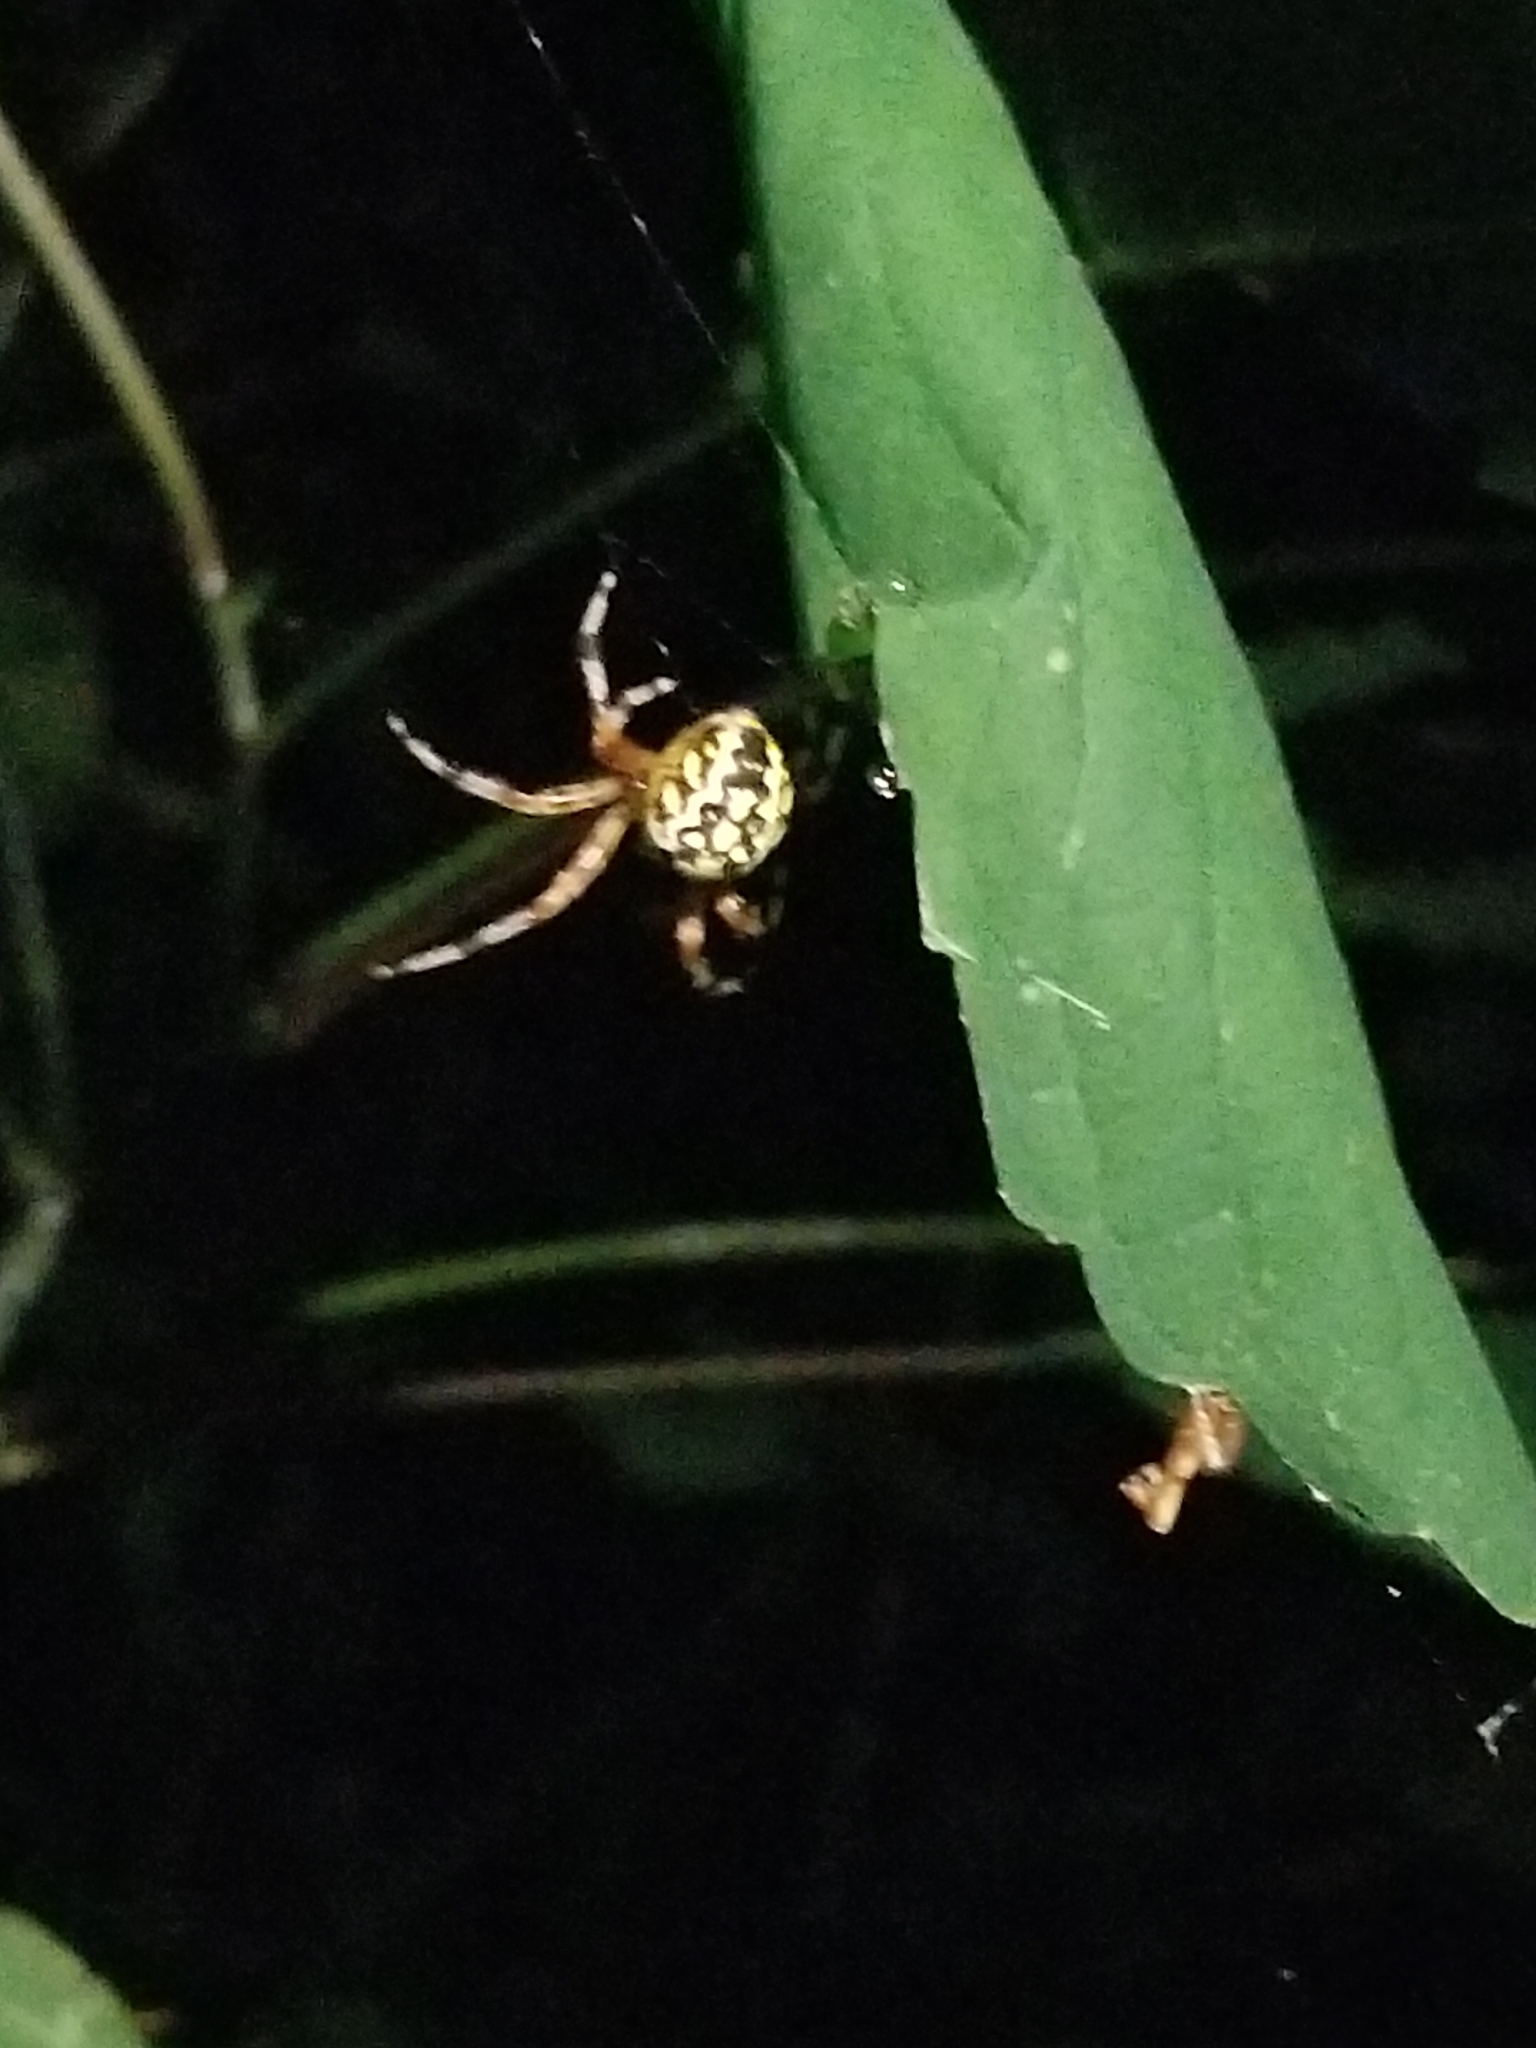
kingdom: Animalia
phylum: Arthropoda
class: Arachnida
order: Araneae
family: Araneidae
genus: Araneus
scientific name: Araneus marmoreus
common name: Marbled orbweaver
